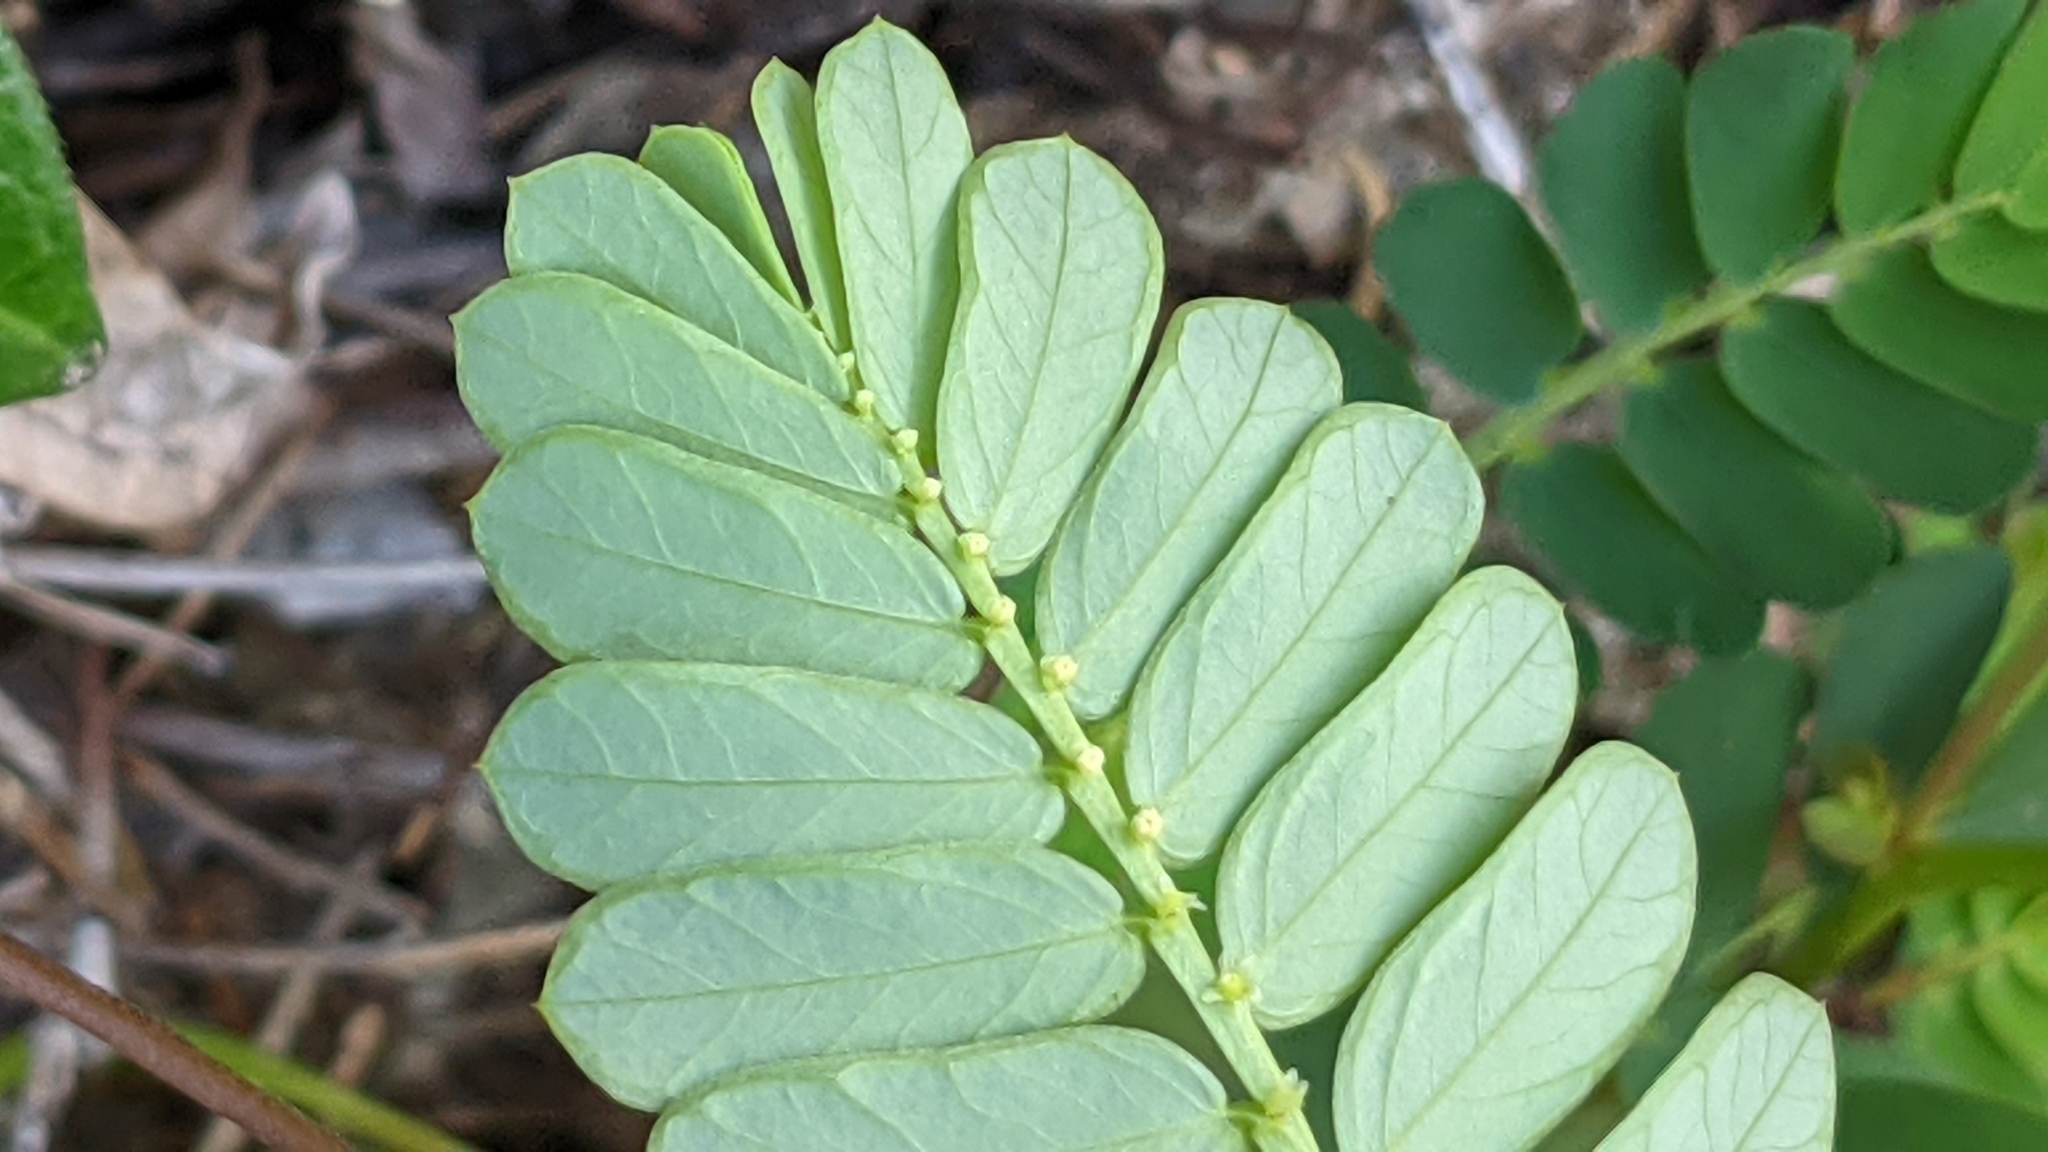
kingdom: Plantae
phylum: Tracheophyta
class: Magnoliopsida
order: Malpighiales
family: Phyllanthaceae
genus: Phyllanthus
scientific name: Phyllanthus urinaria
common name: Chamber bitter
